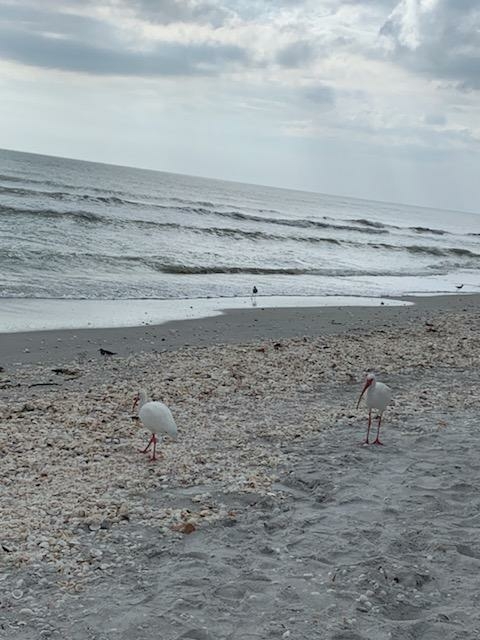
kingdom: Animalia
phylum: Chordata
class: Aves
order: Pelecaniformes
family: Threskiornithidae
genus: Eudocimus
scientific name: Eudocimus albus
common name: White ibis
